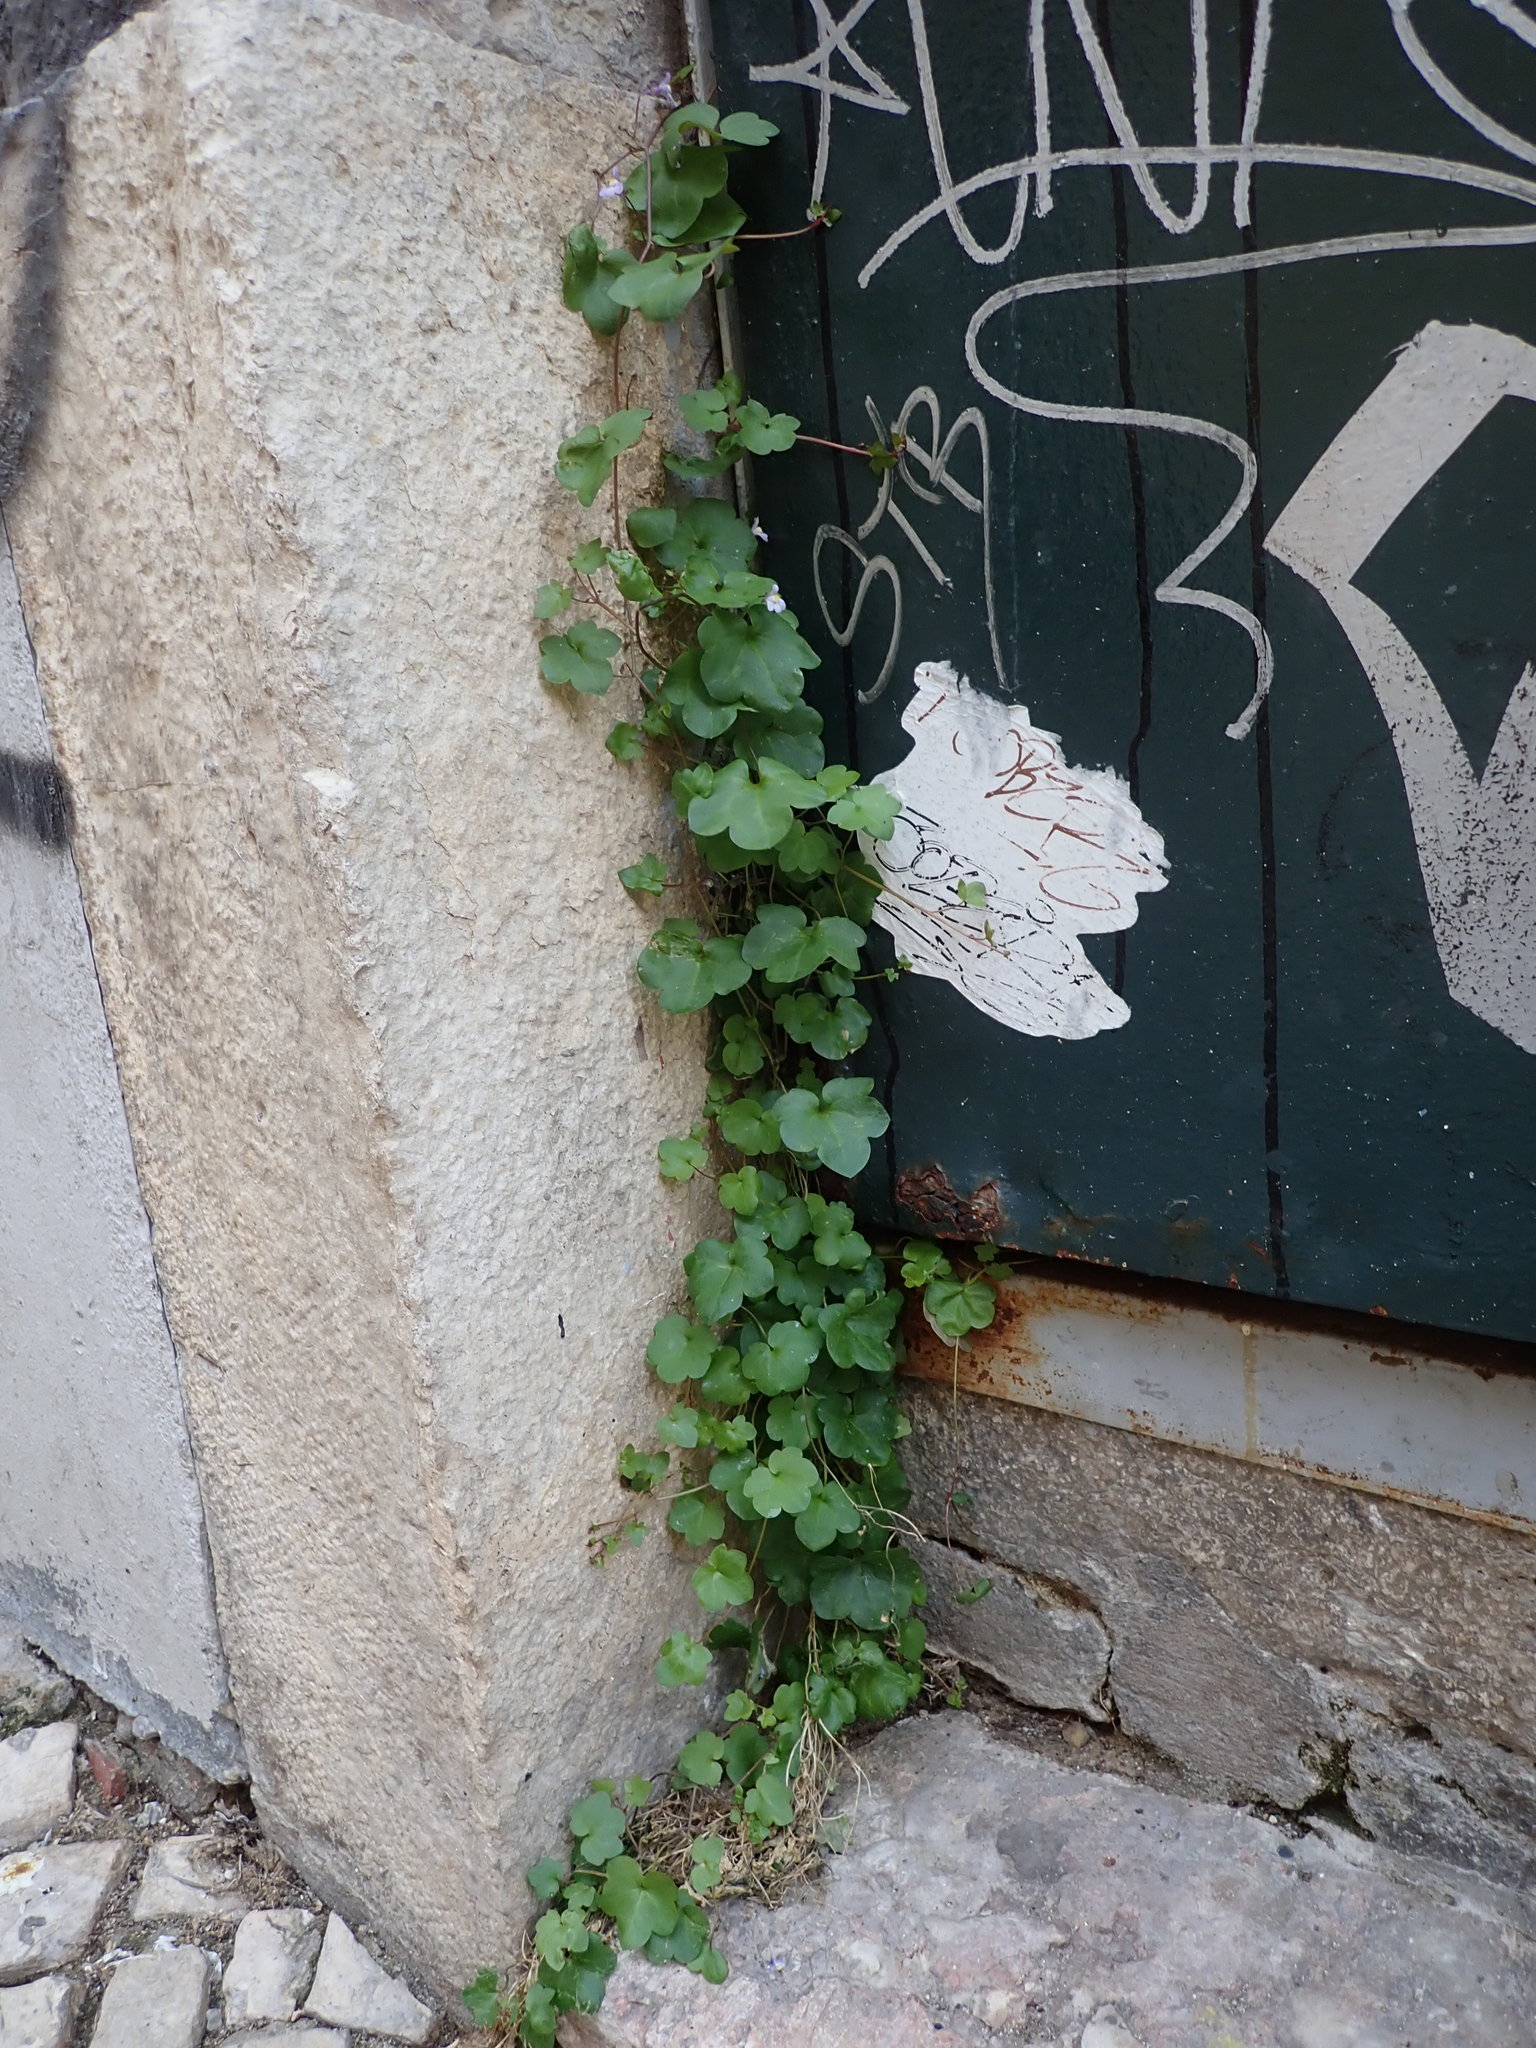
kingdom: Plantae
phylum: Tracheophyta
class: Magnoliopsida
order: Lamiales
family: Plantaginaceae
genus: Cymbalaria
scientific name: Cymbalaria muralis
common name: Ivy-leaved toadflax
